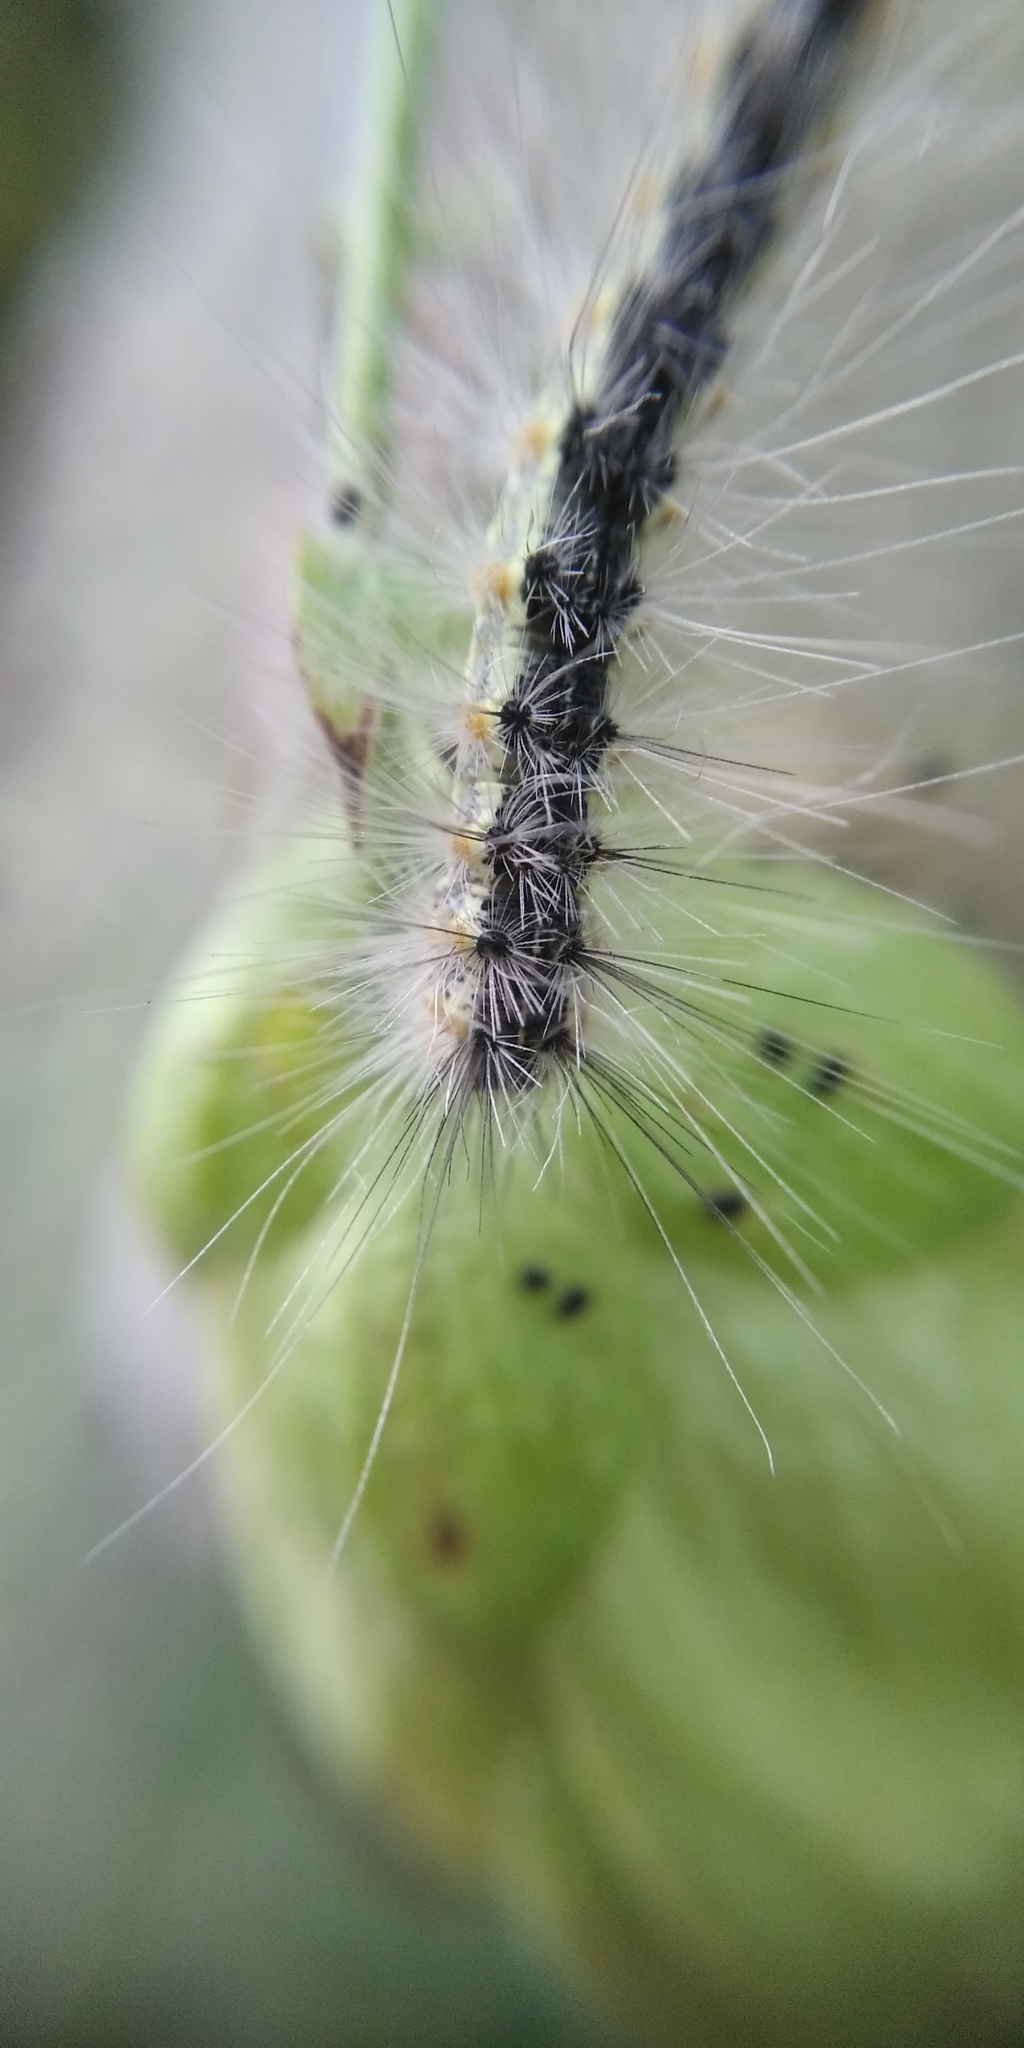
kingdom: Animalia
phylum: Arthropoda
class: Insecta
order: Lepidoptera
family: Erebidae
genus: Hyphantria
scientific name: Hyphantria cunea
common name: American white moth
